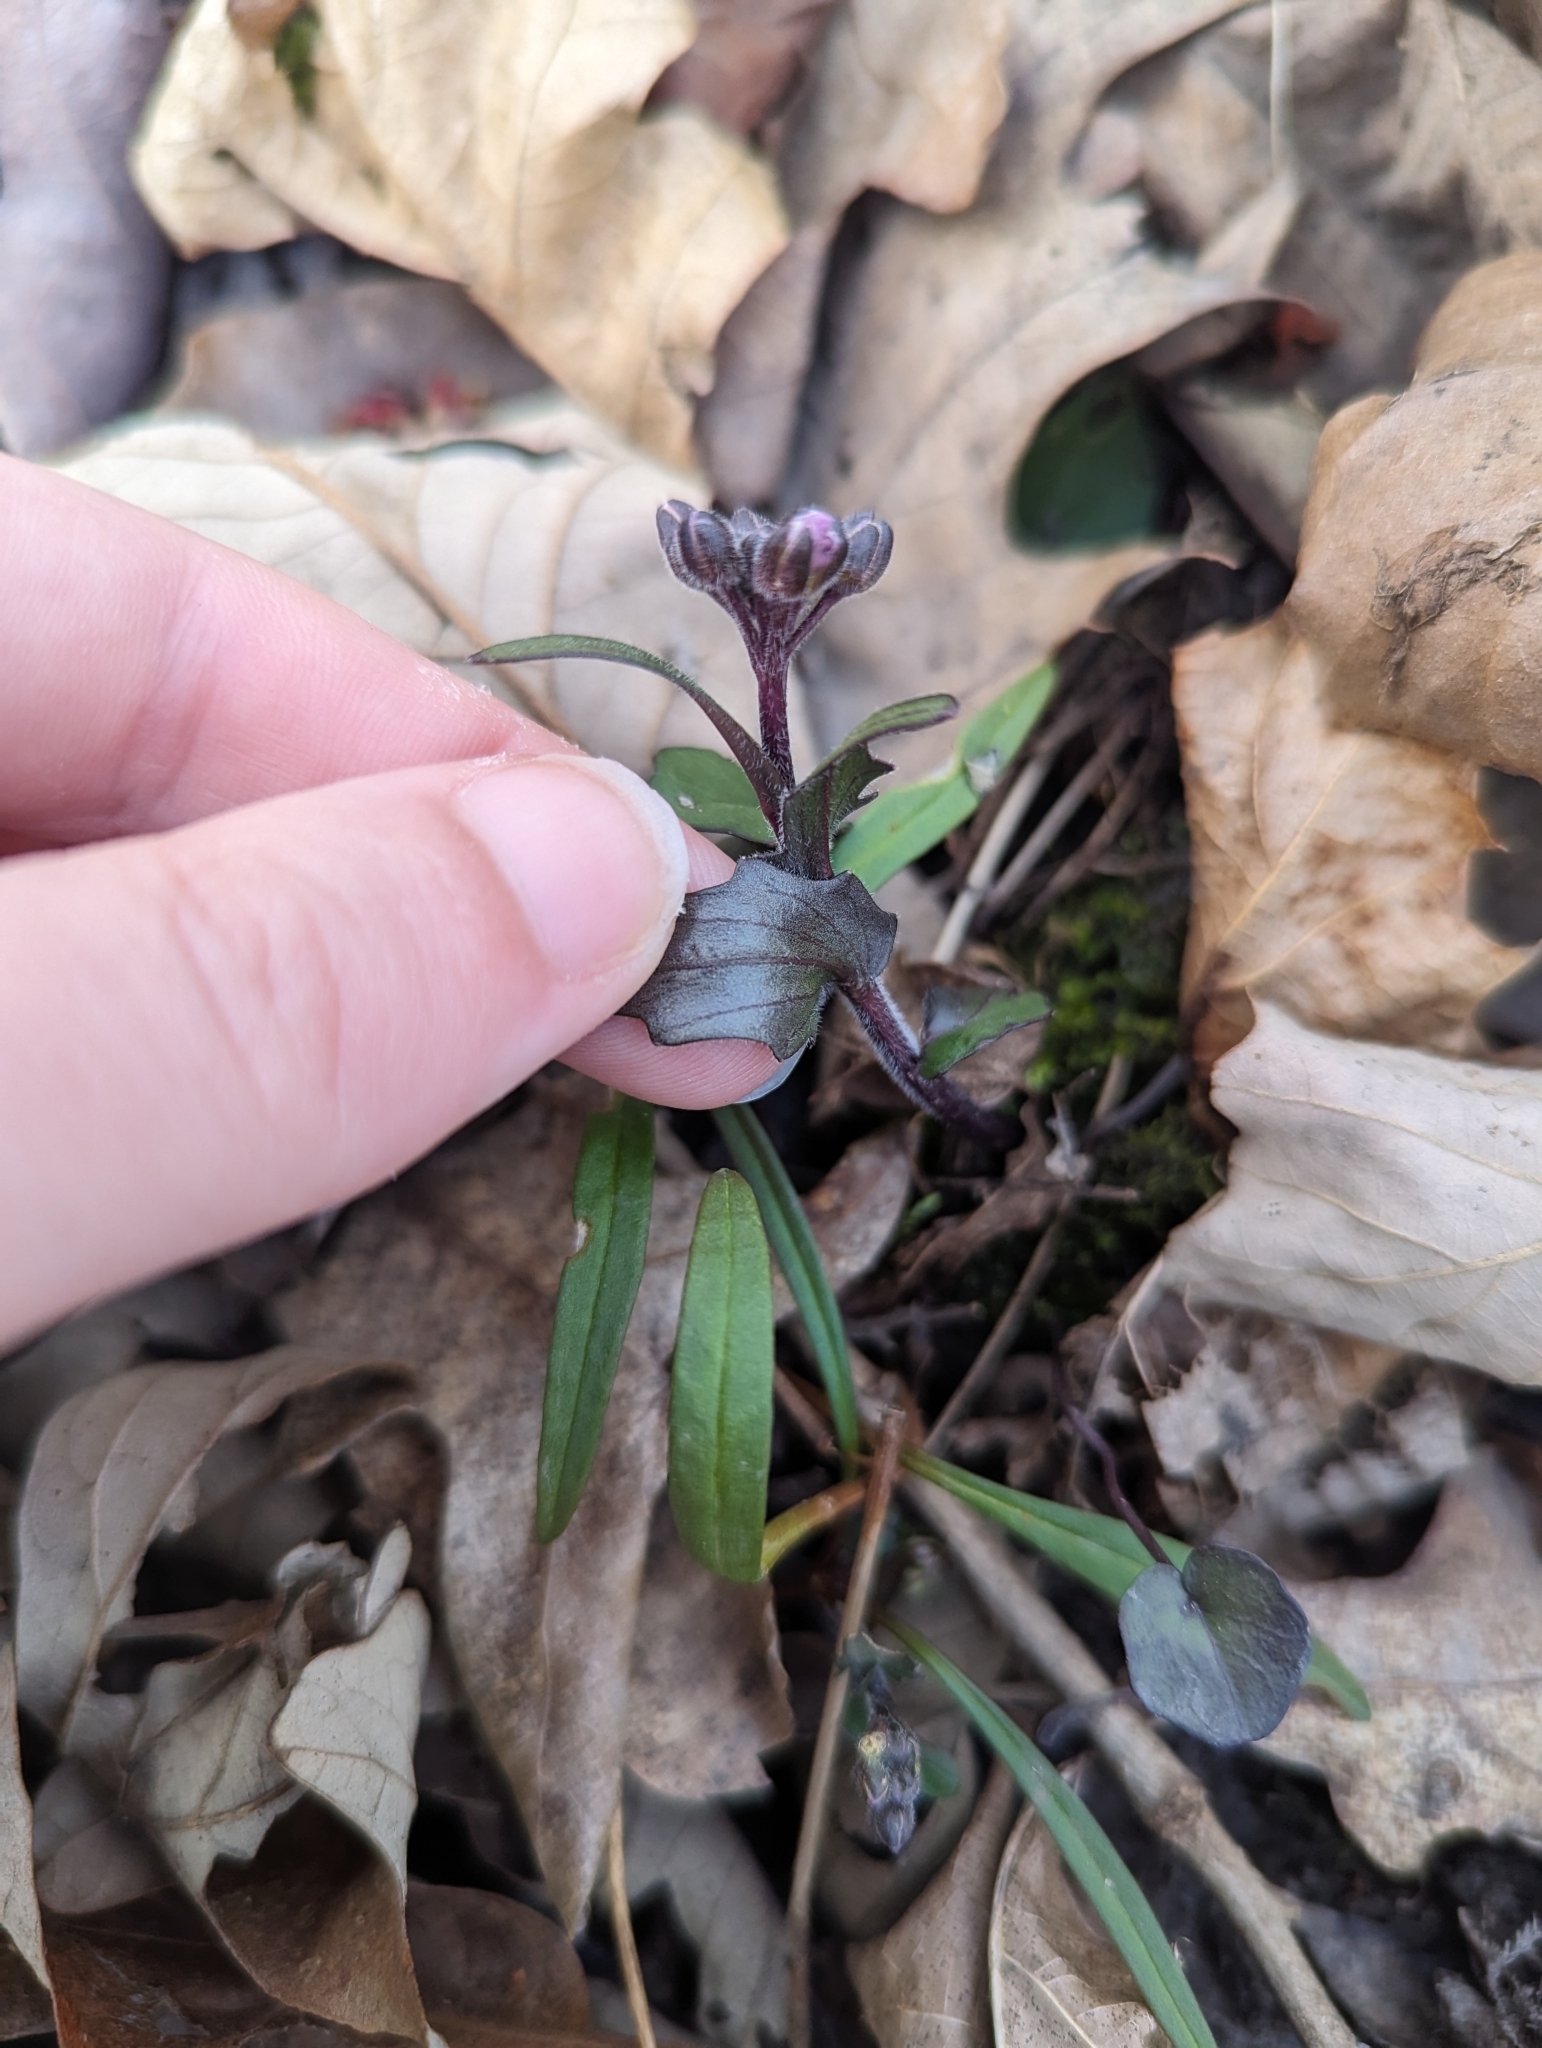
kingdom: Plantae
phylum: Tracheophyta
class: Magnoliopsida
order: Brassicales
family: Brassicaceae
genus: Cardamine
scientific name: Cardamine douglassii
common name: Purple cress
